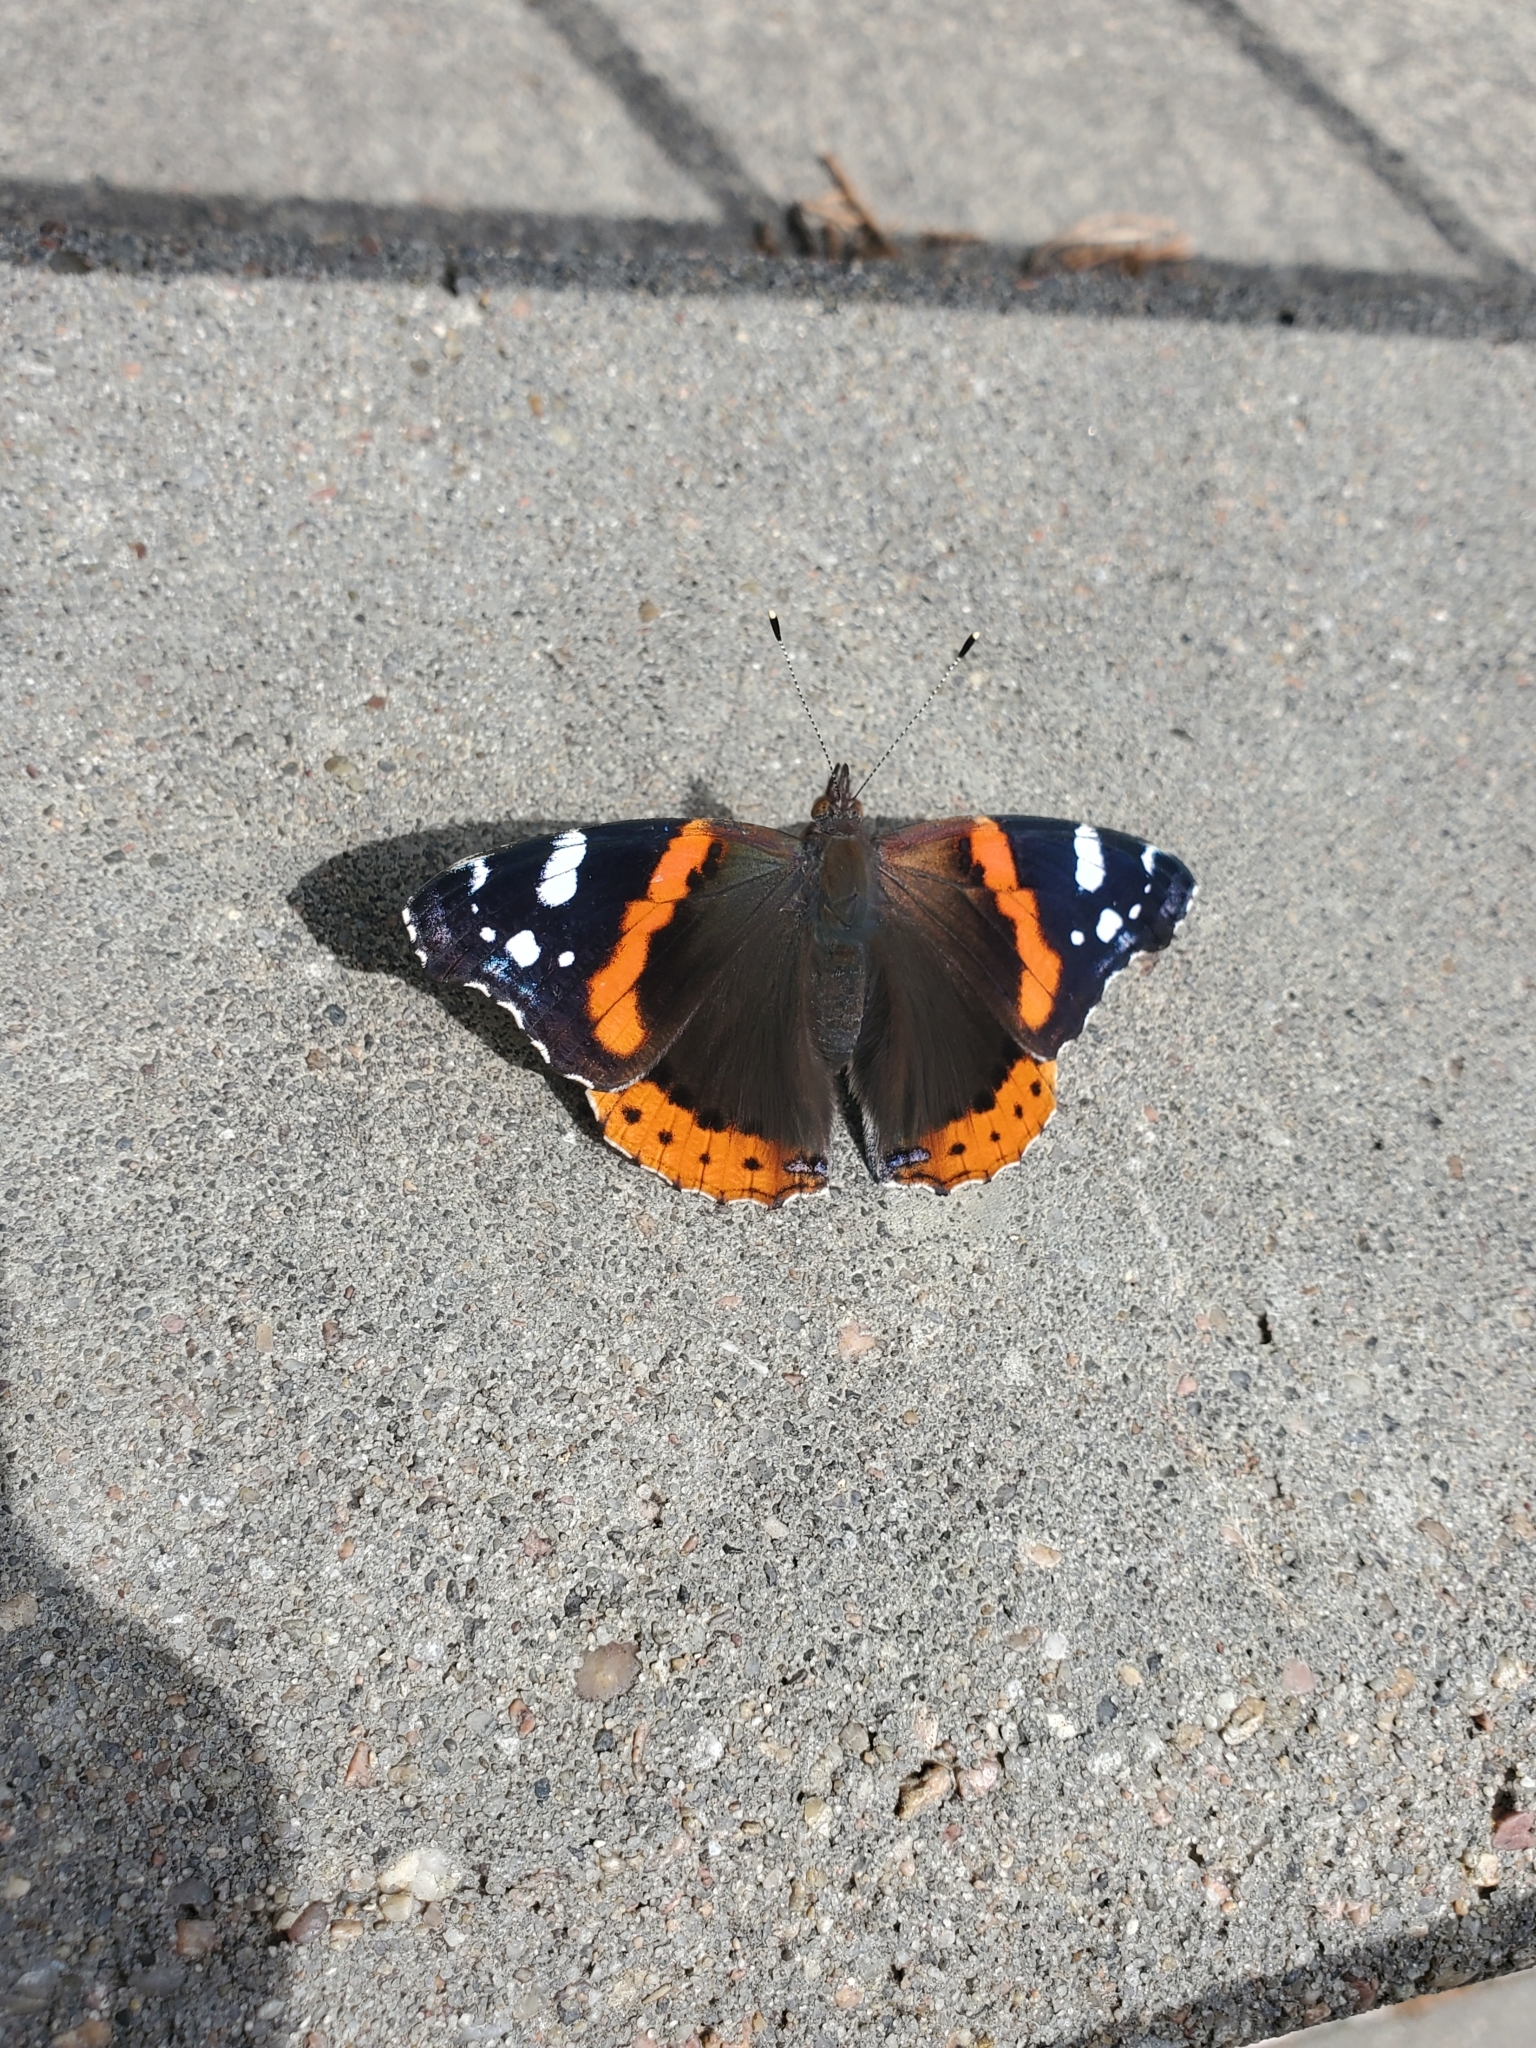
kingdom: Animalia
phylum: Arthropoda
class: Insecta
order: Lepidoptera
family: Nymphalidae
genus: Vanessa
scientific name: Vanessa atalanta
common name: Red admiral
